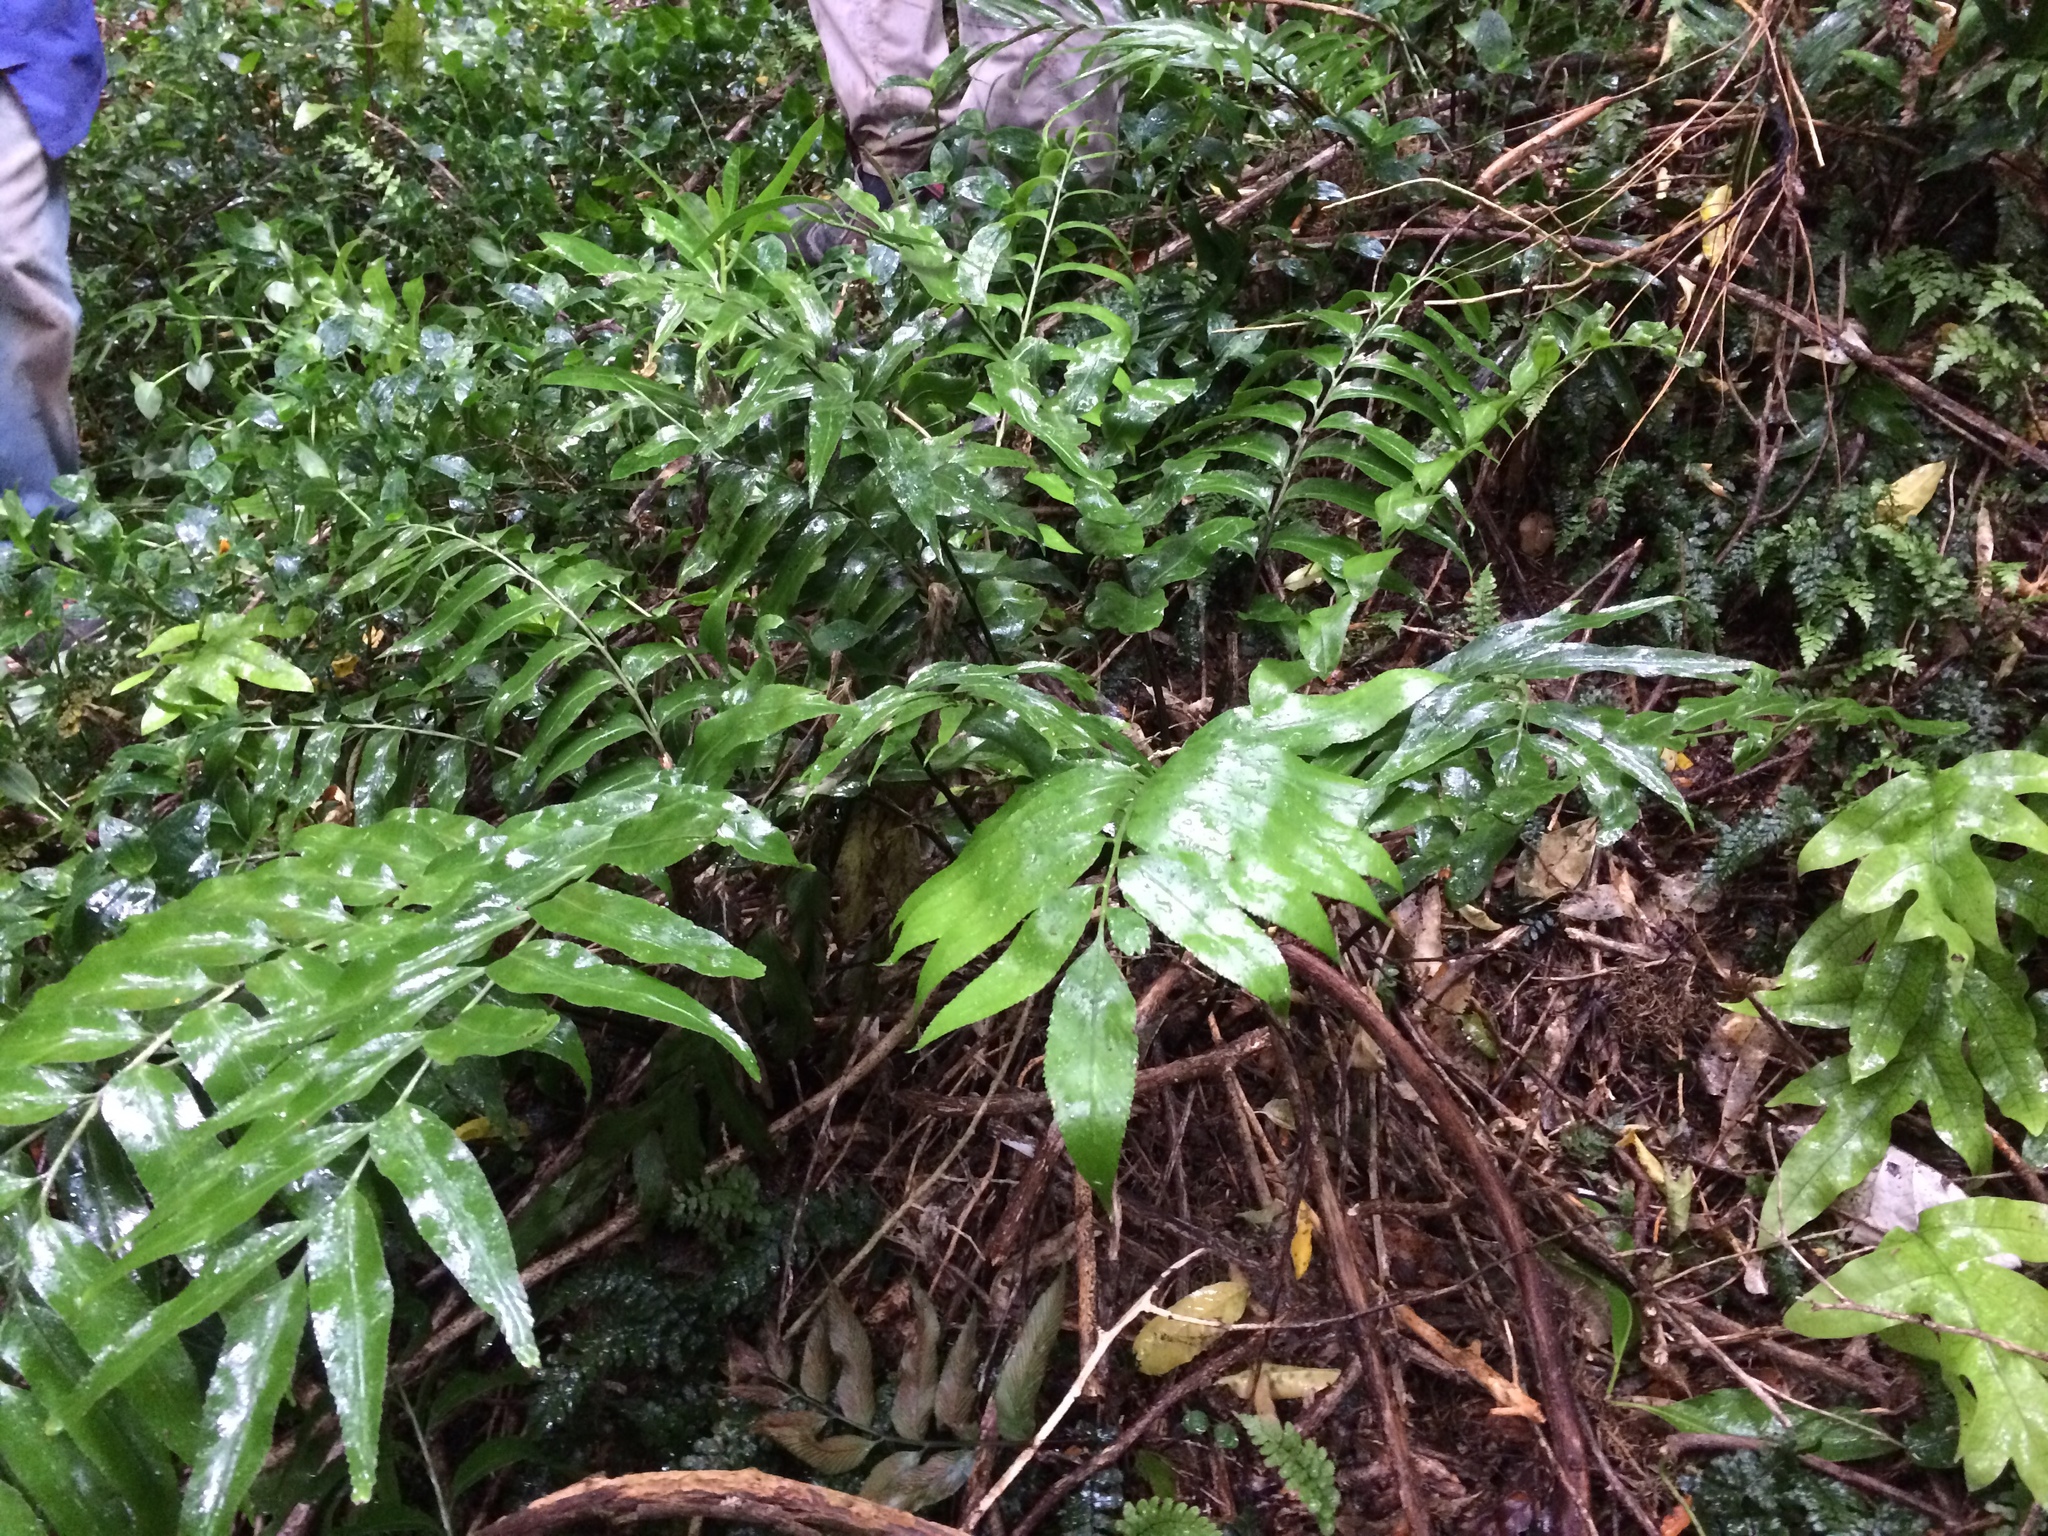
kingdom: Plantae
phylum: Tracheophyta
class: Polypodiopsida
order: Polypodiales
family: Aspleniaceae
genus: Asplenium
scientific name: Asplenium oblongifolium
